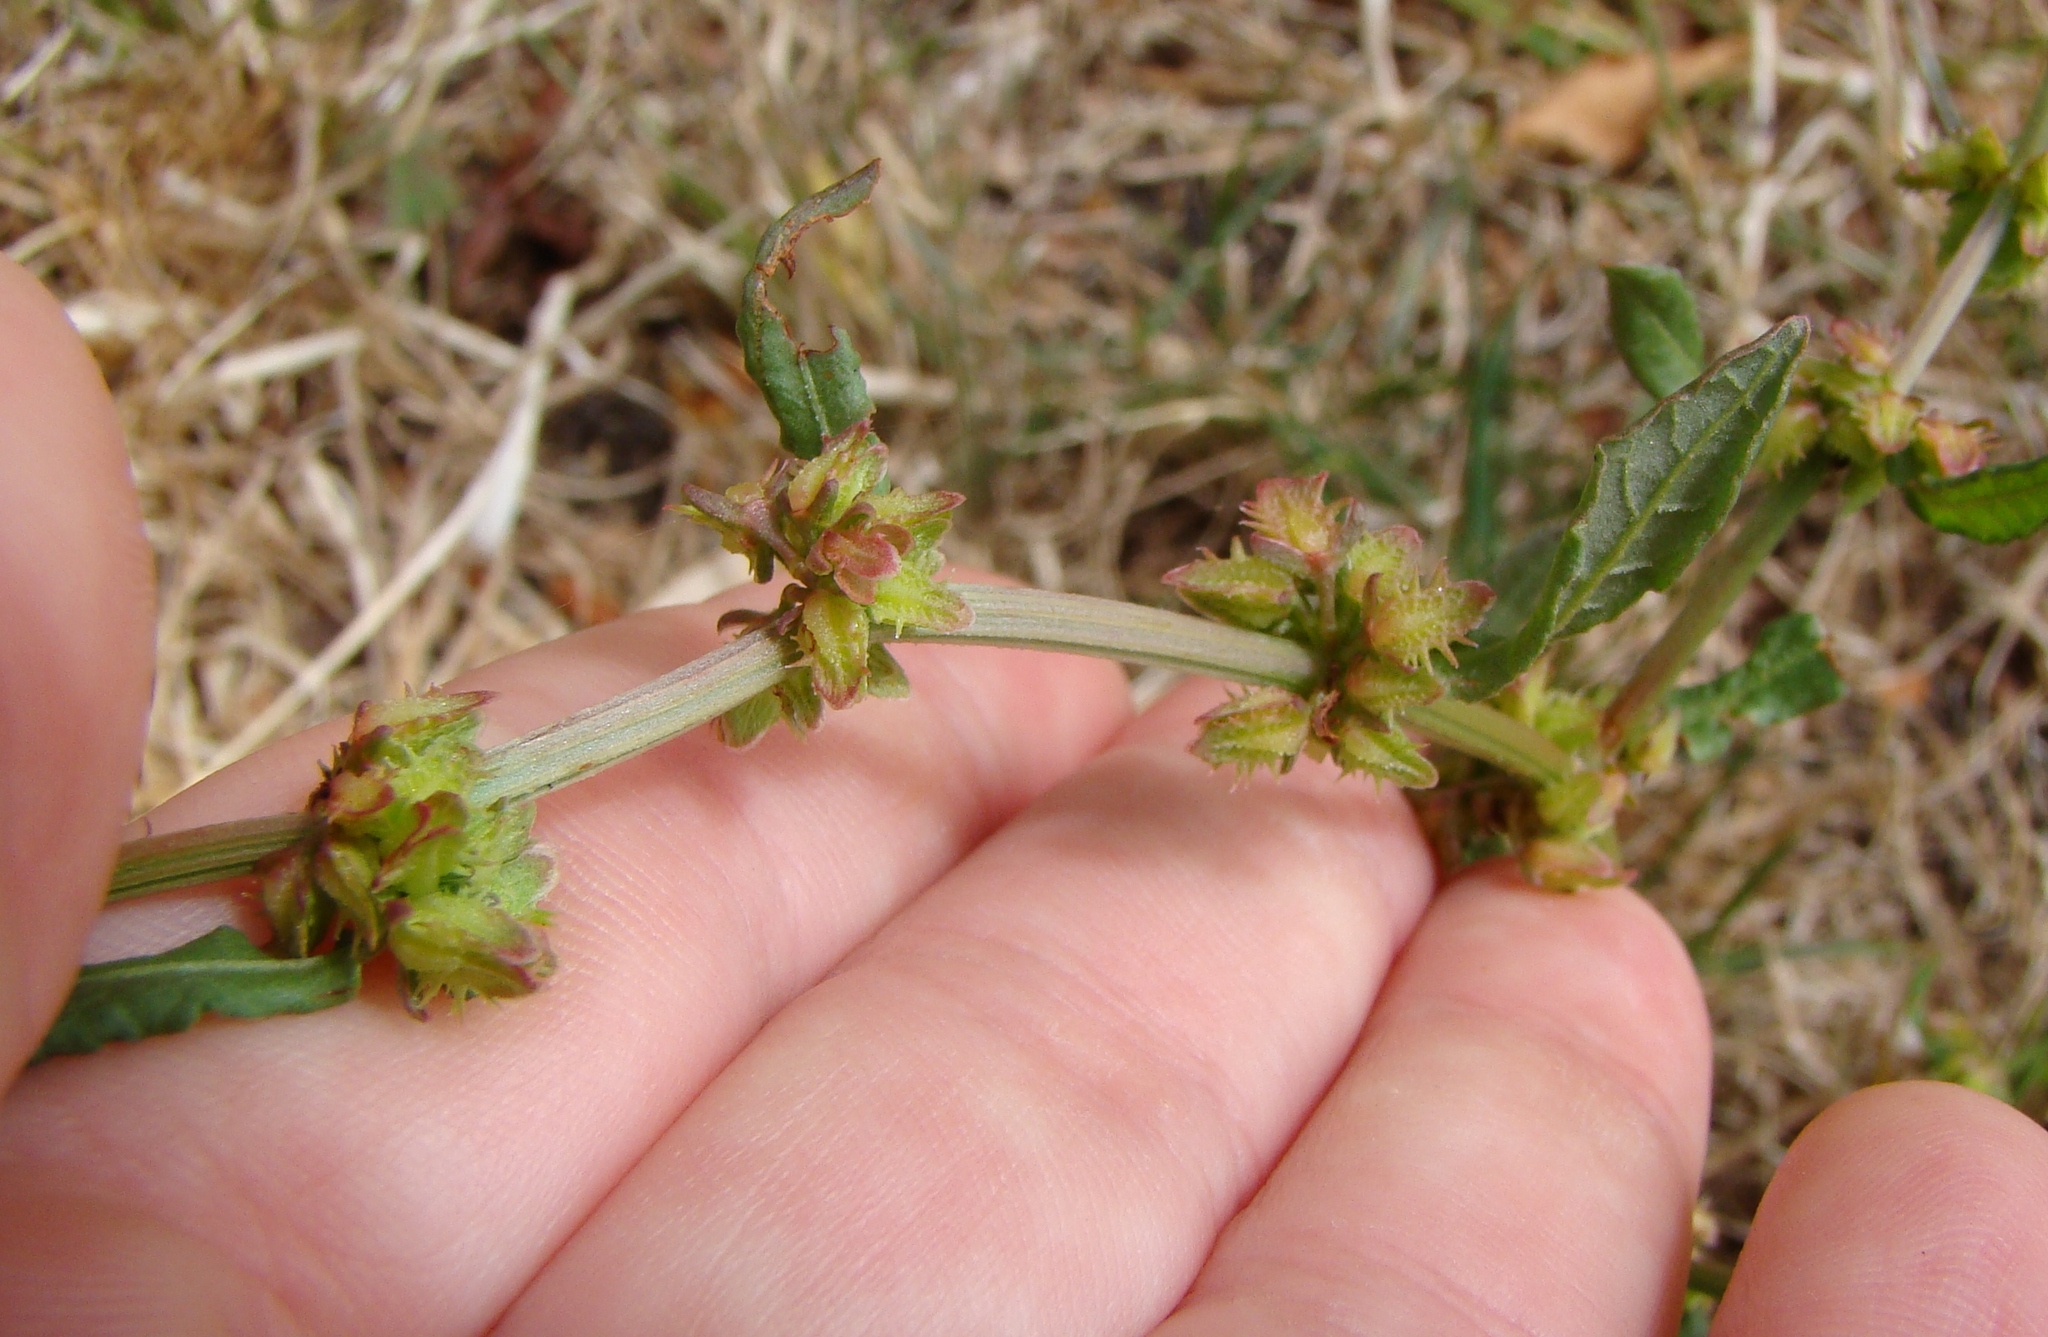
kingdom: Plantae
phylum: Tracheophyta
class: Magnoliopsida
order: Caryophyllales
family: Polygonaceae
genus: Rumex
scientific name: Rumex pulcher
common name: Fiddle dock
